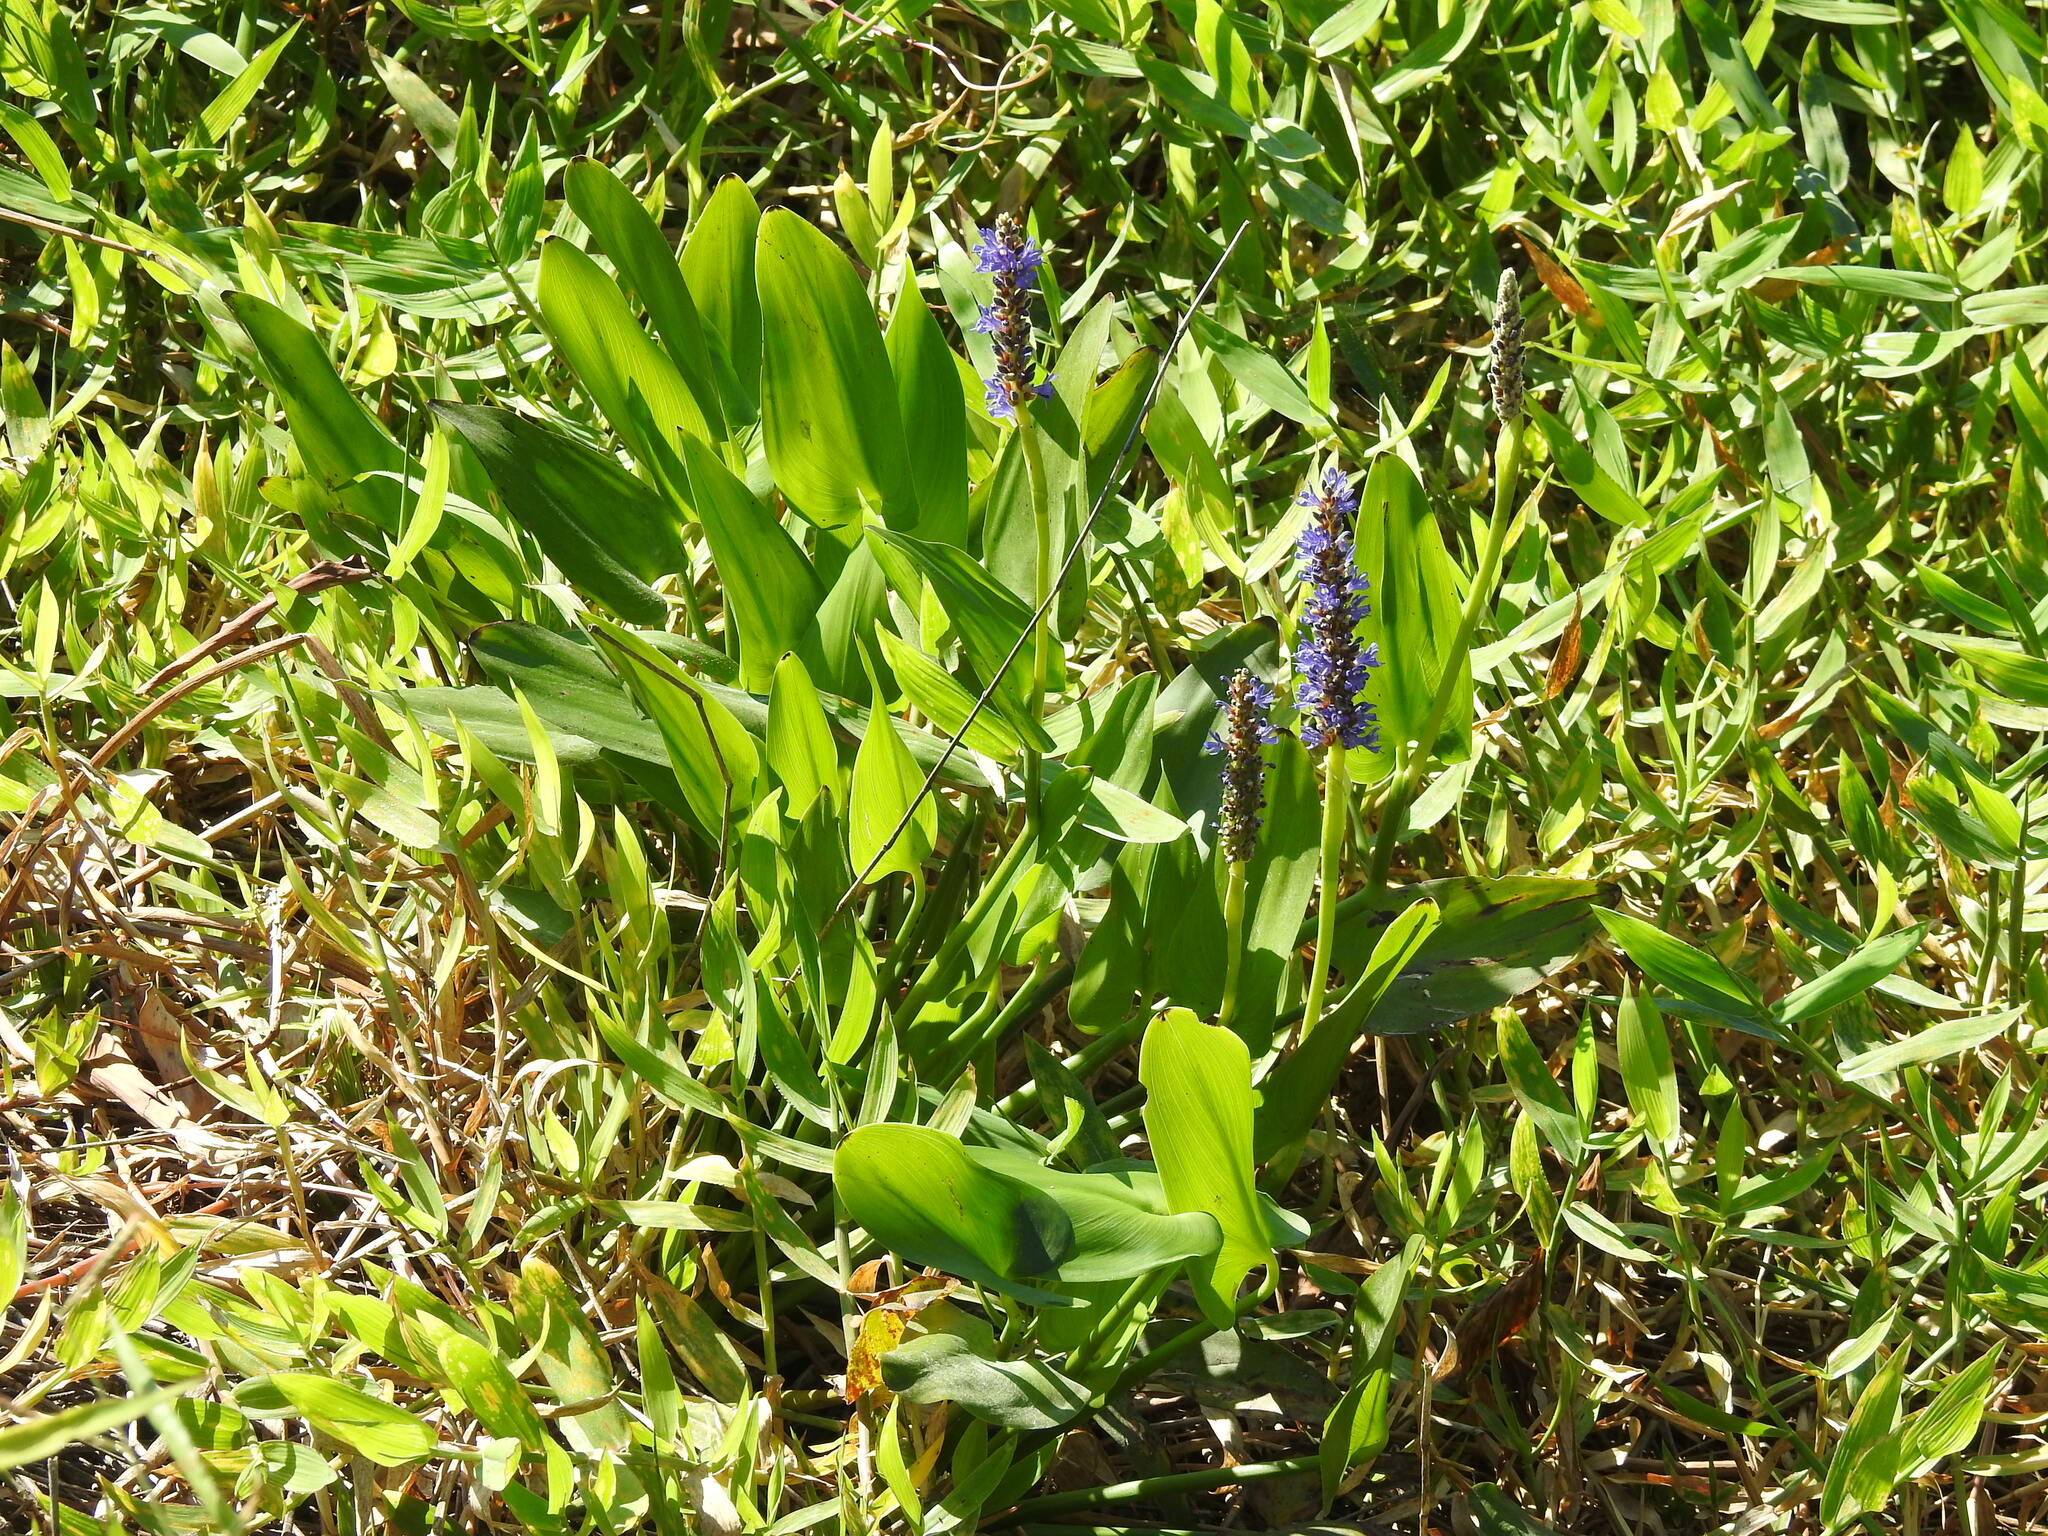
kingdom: Plantae
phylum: Tracheophyta
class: Liliopsida
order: Commelinales
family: Pontederiaceae
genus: Pontederia
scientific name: Pontederia cordata
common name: Pickerelweed
